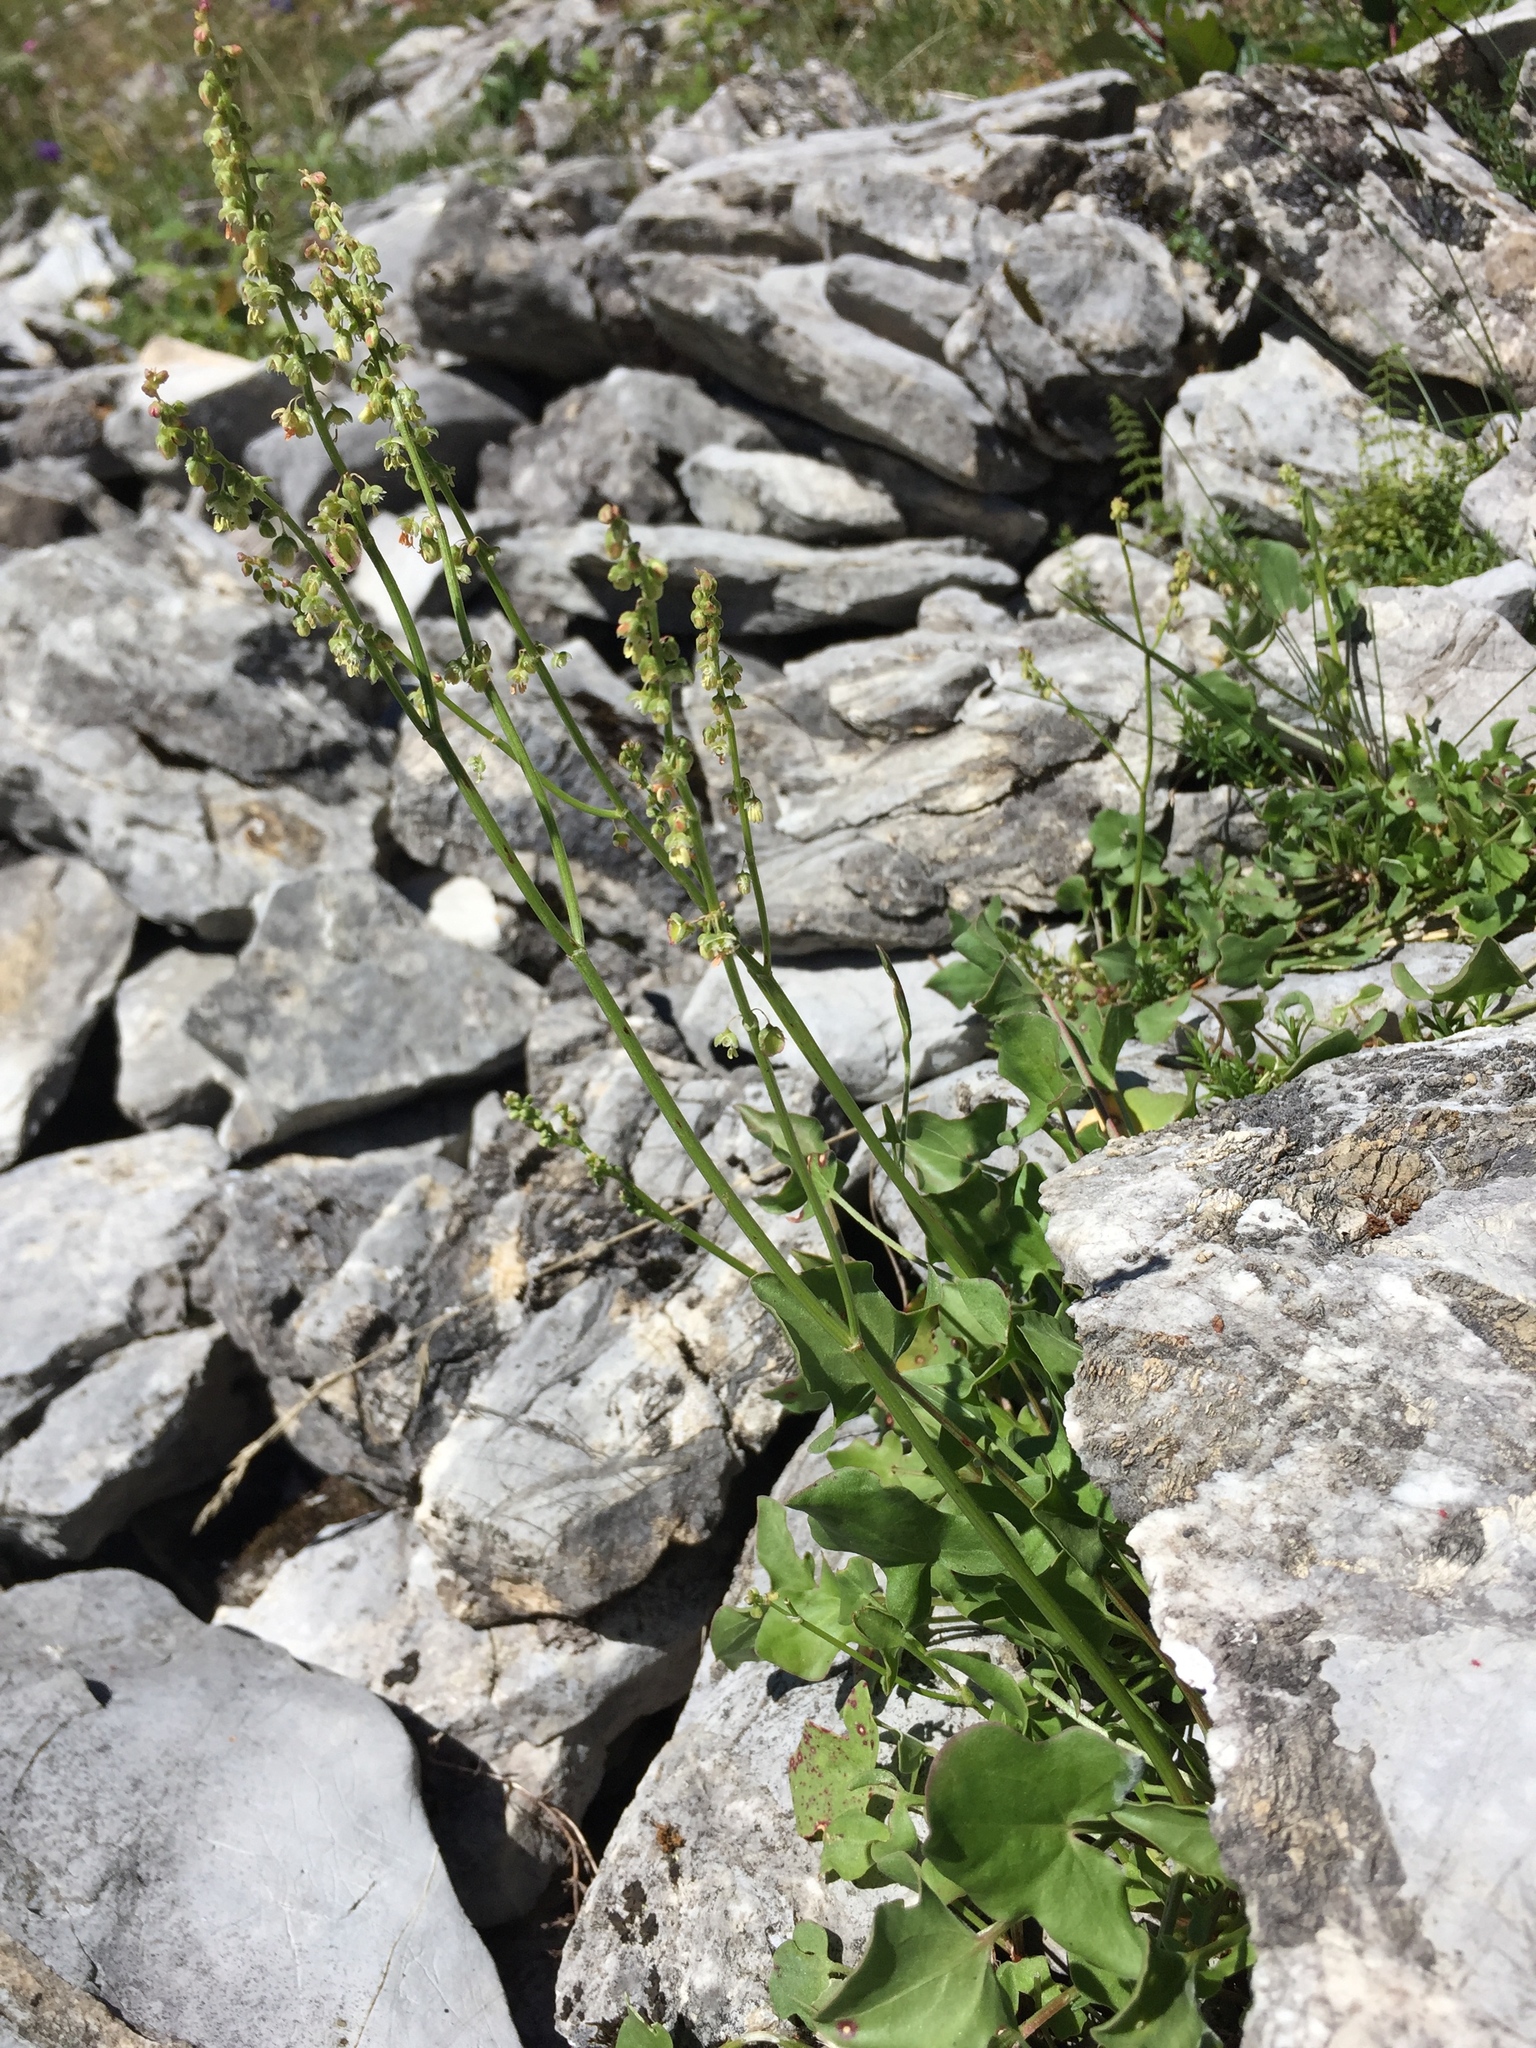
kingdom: Plantae
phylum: Tracheophyta
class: Magnoliopsida
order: Caryophyllales
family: Polygonaceae
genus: Rumex
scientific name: Rumex scutatus
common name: French sorrel
